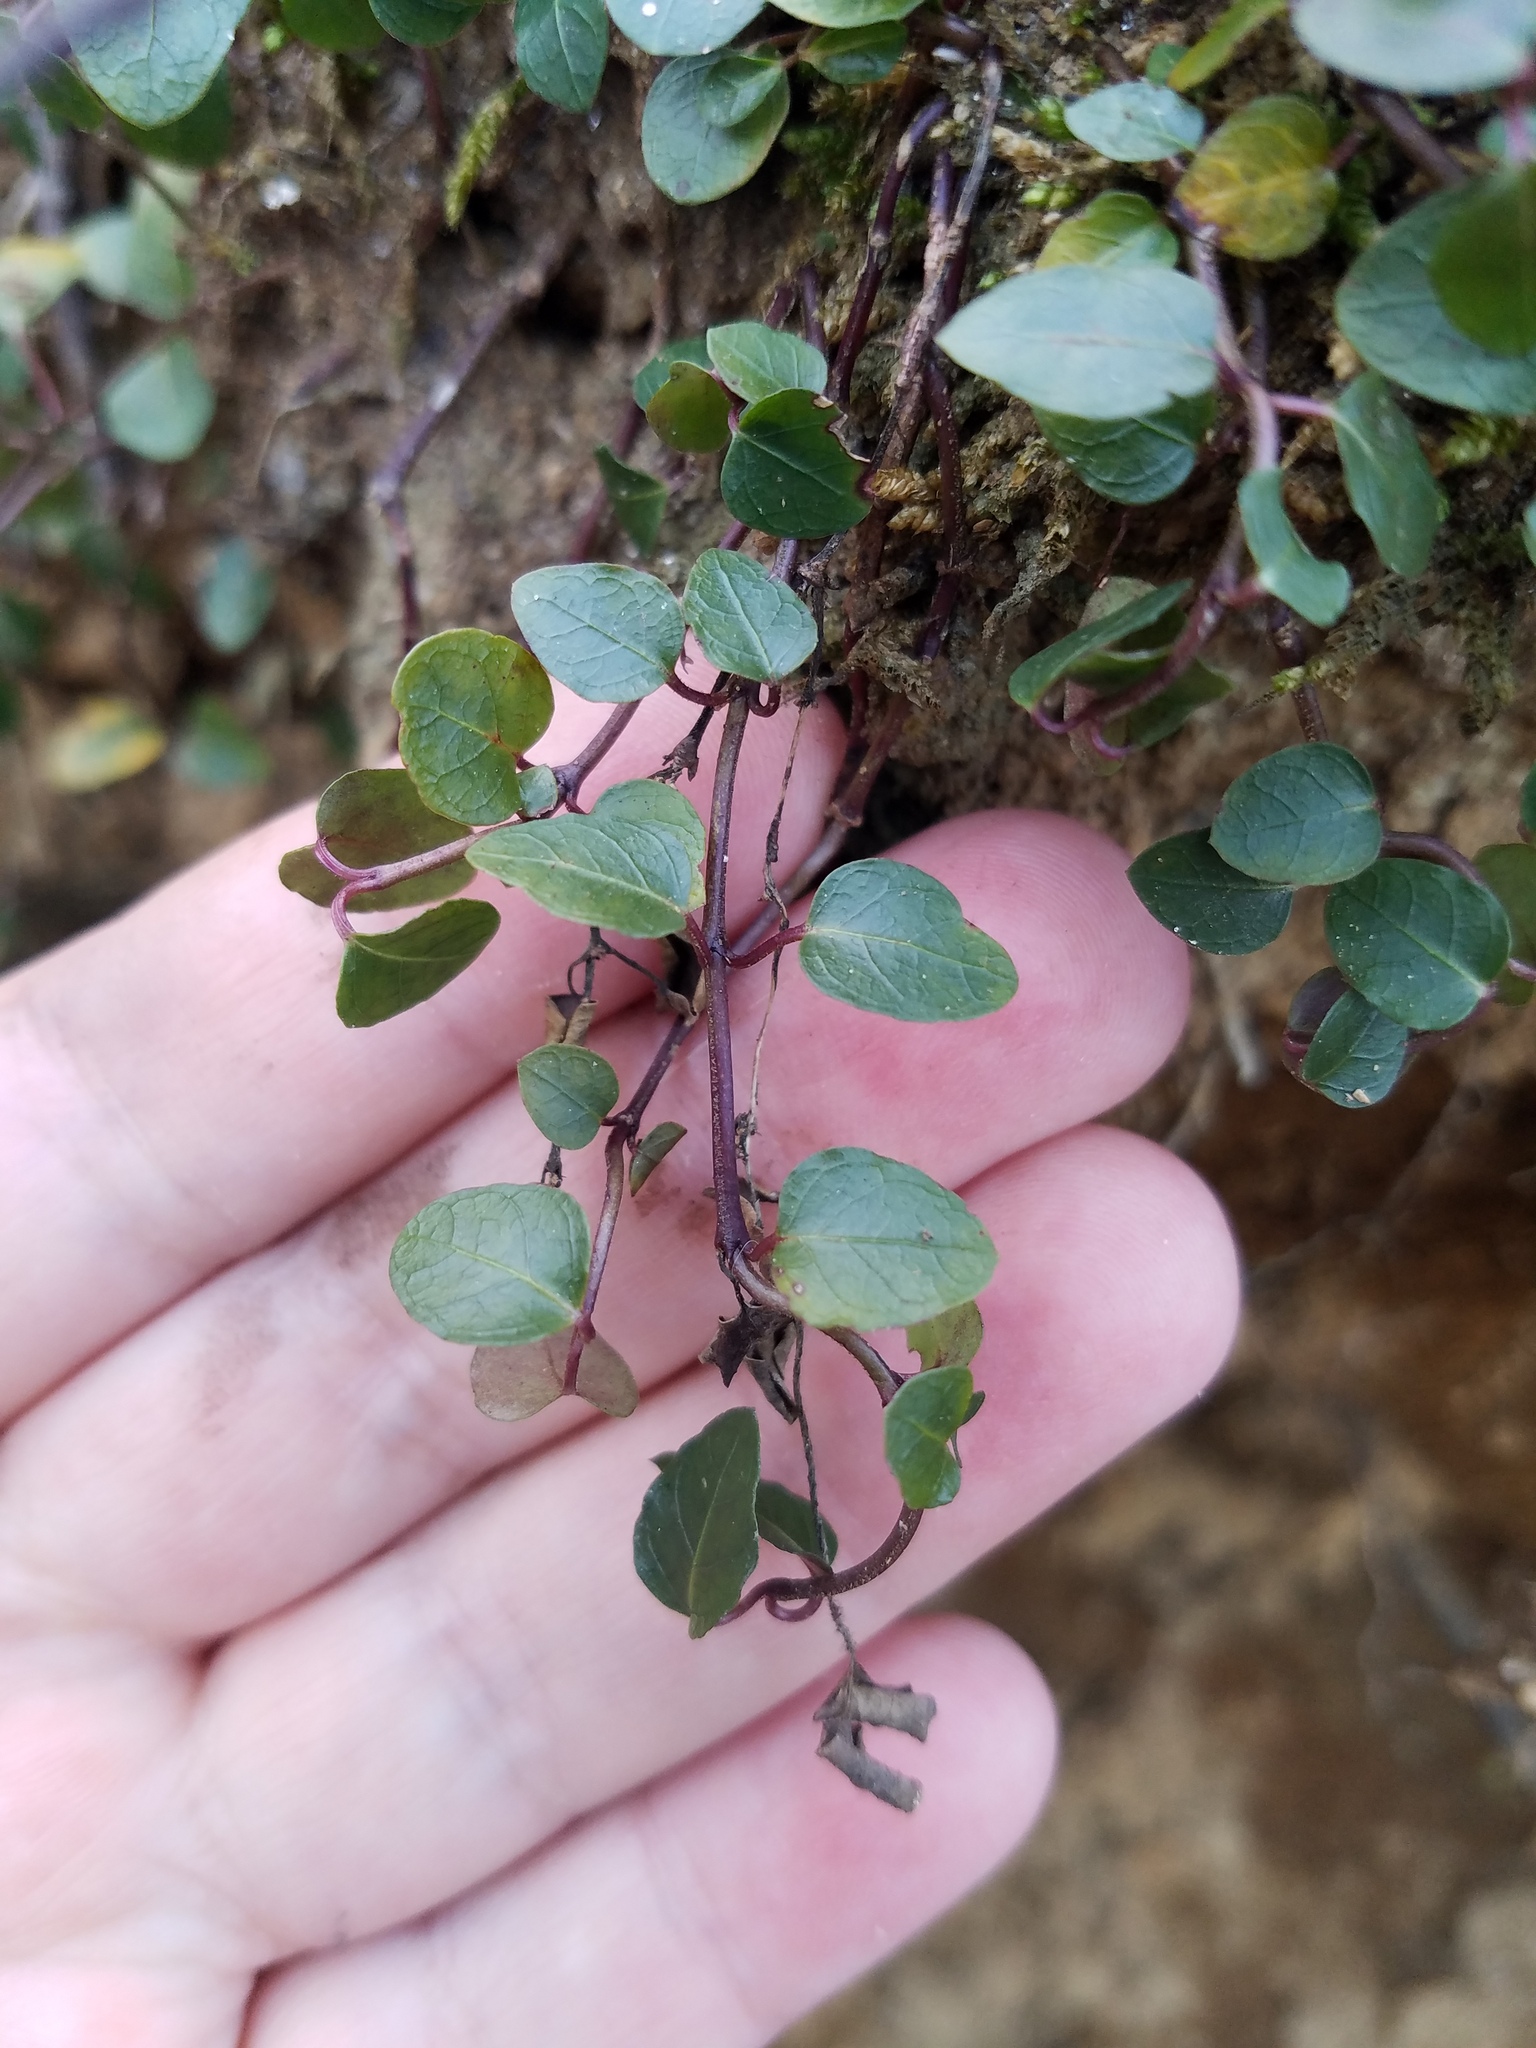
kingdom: Plantae
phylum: Tracheophyta
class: Magnoliopsida
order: Gentianales
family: Rubiaceae
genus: Mitchella
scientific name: Mitchella repens
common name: Partridge-berry
